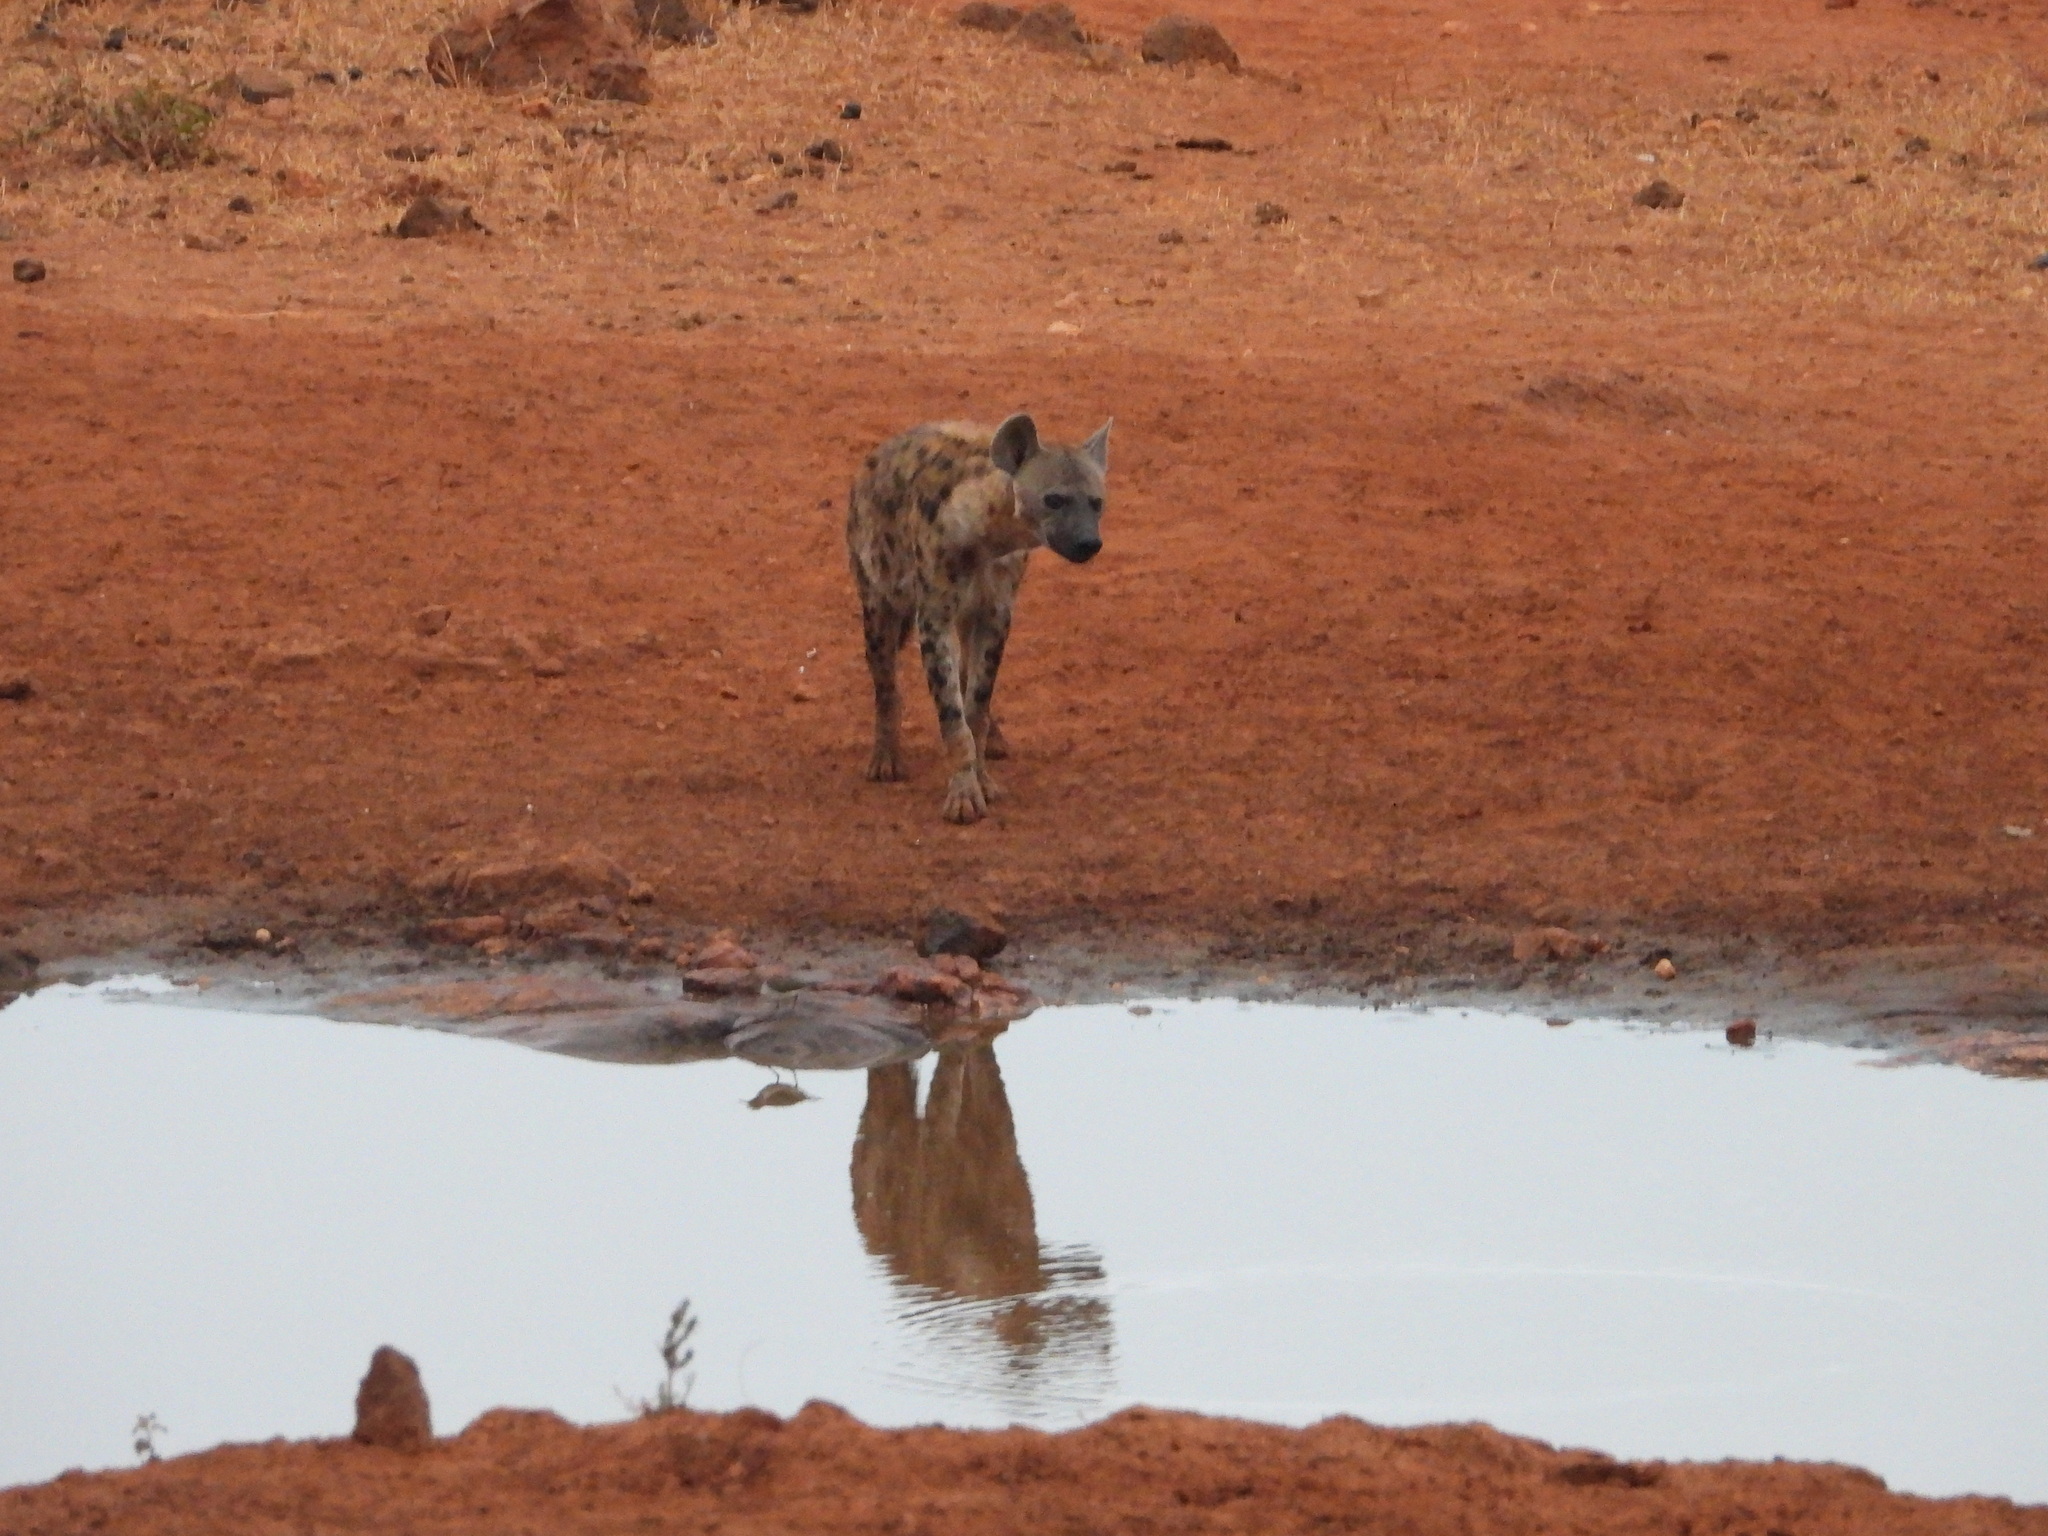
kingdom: Animalia
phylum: Chordata
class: Mammalia
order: Carnivora
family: Hyaenidae
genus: Crocuta
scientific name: Crocuta crocuta
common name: Spotted hyaena
